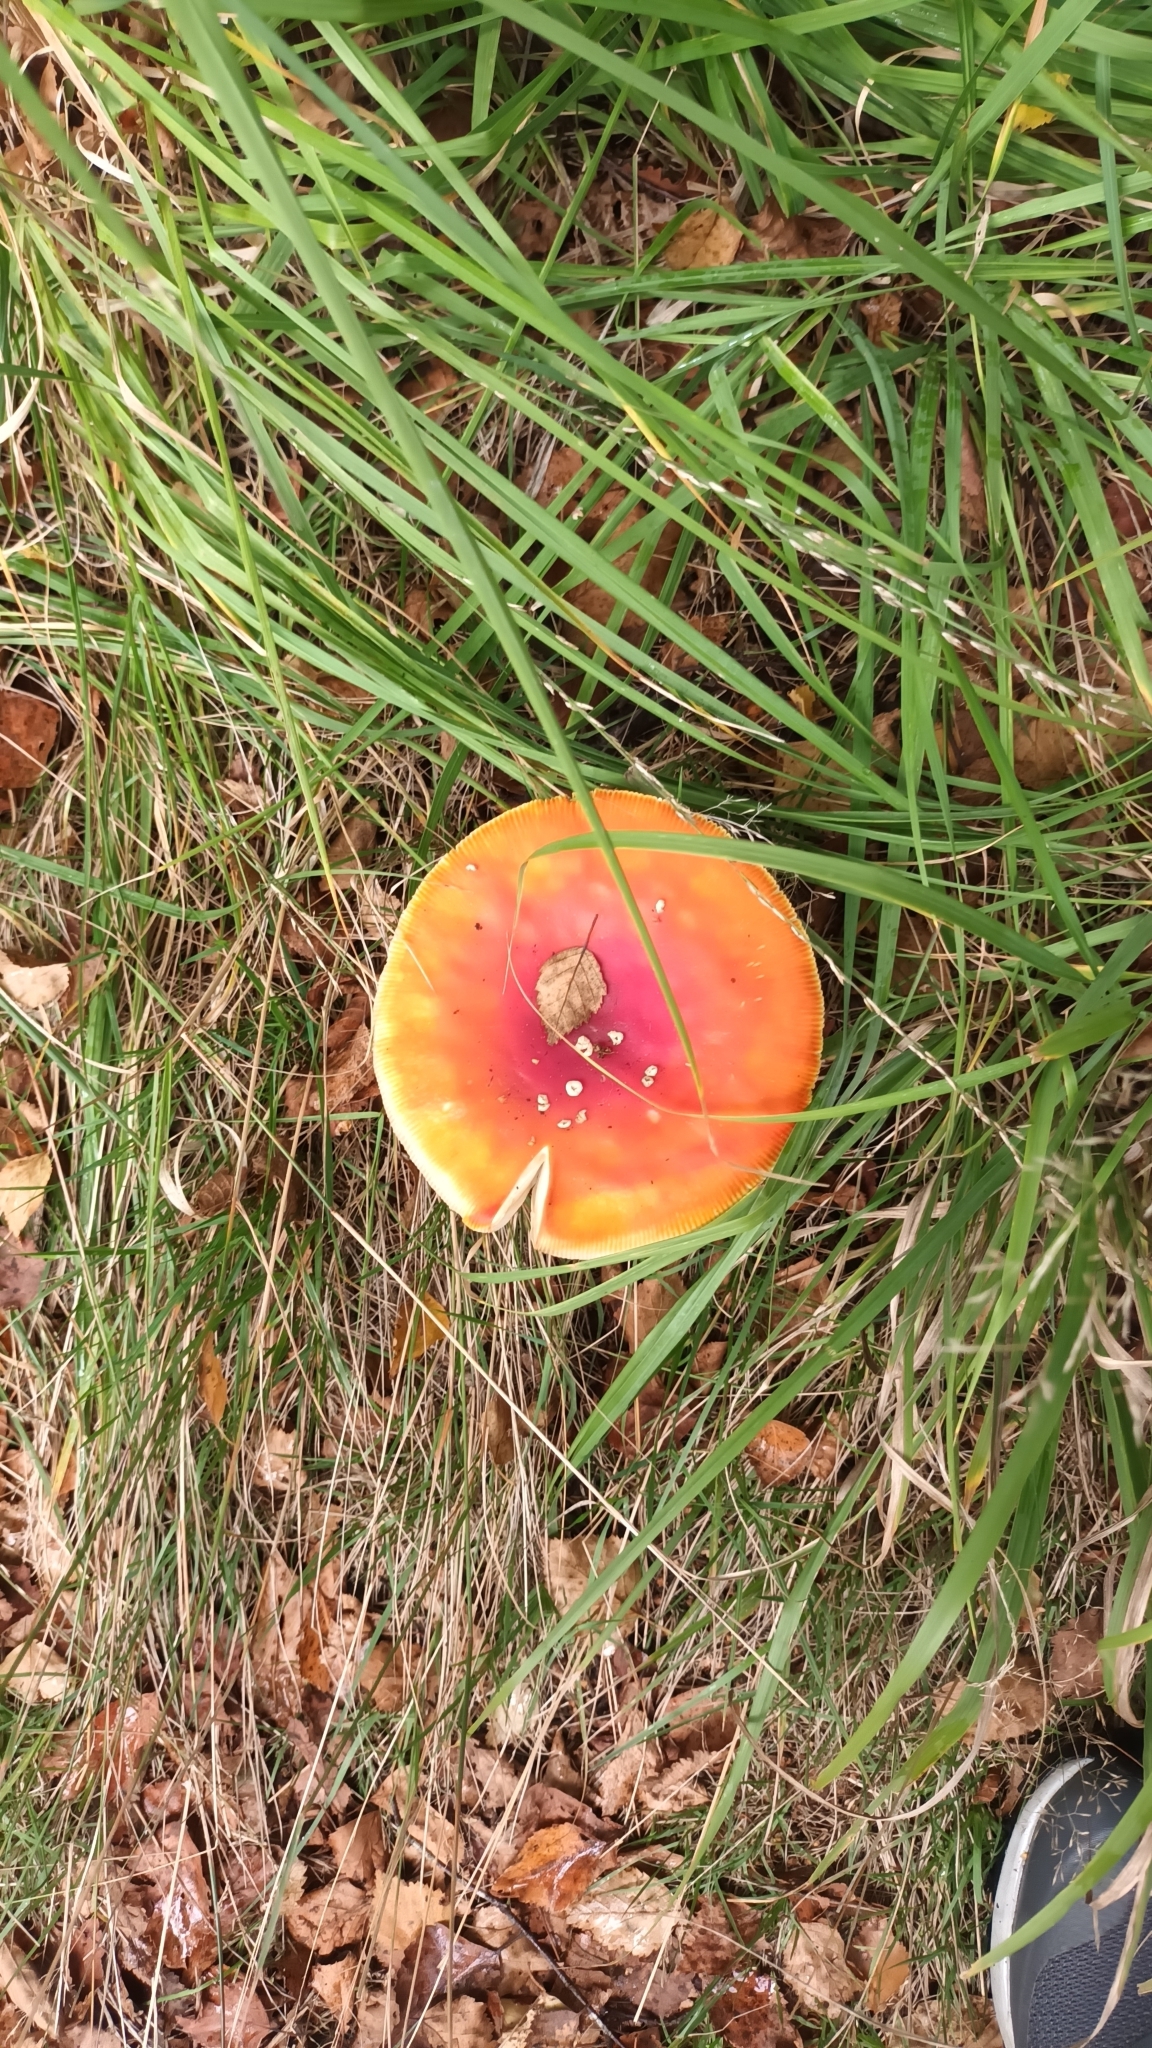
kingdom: Fungi
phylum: Basidiomycota
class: Agaricomycetes
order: Agaricales
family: Amanitaceae
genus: Amanita
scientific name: Amanita muscaria
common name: Fly agaric
